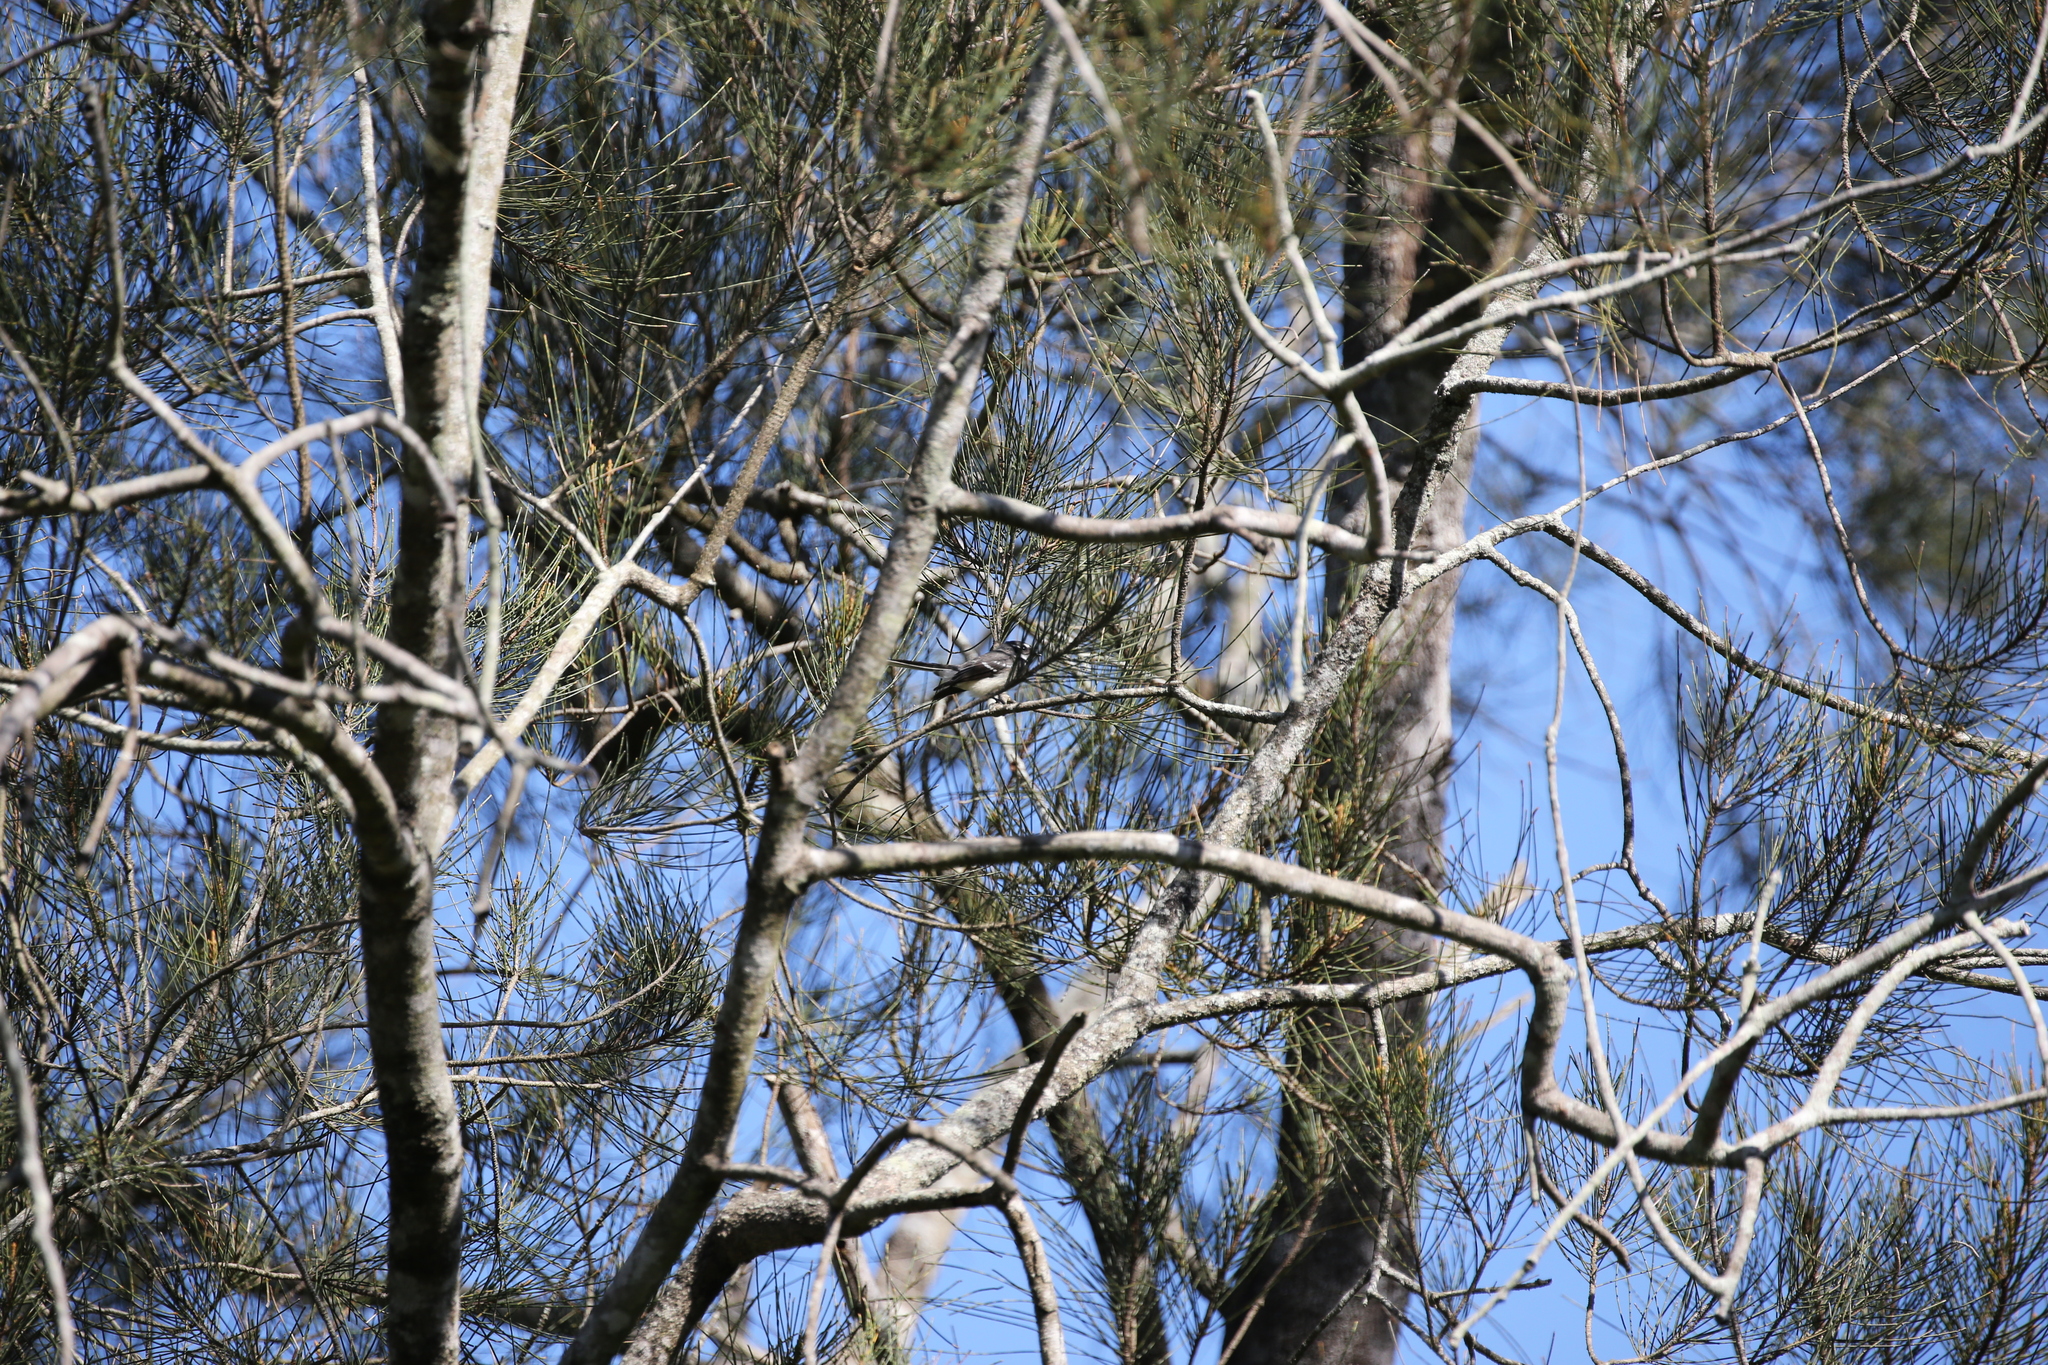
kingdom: Animalia
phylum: Chordata
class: Aves
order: Passeriformes
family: Rhipiduridae
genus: Rhipidura
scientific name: Rhipidura albiscapa
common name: Grey fantail
